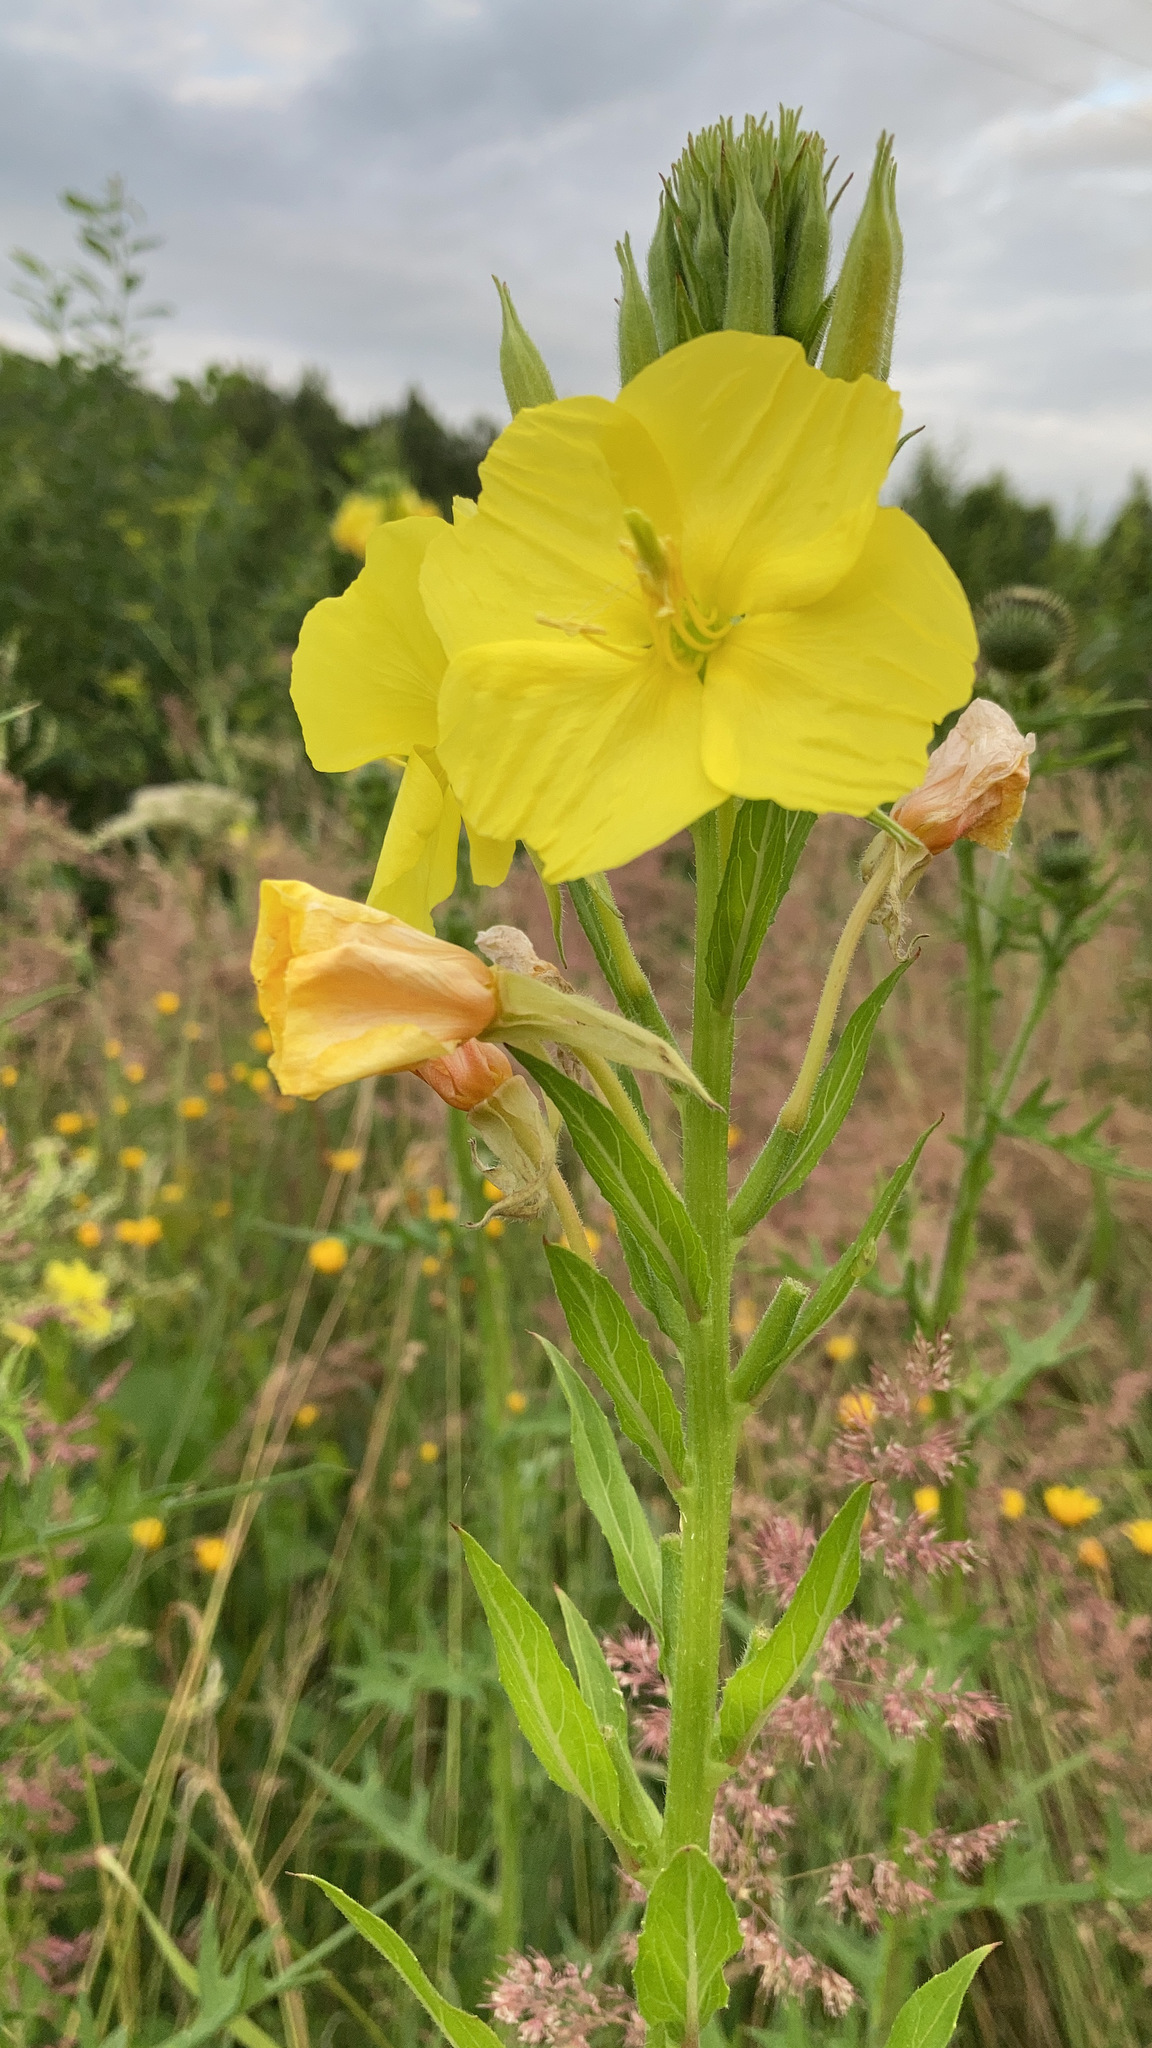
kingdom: Plantae
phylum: Tracheophyta
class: Magnoliopsida
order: Myrtales
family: Onagraceae
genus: Oenothera
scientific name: Oenothera biennis
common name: Common evening-primrose
